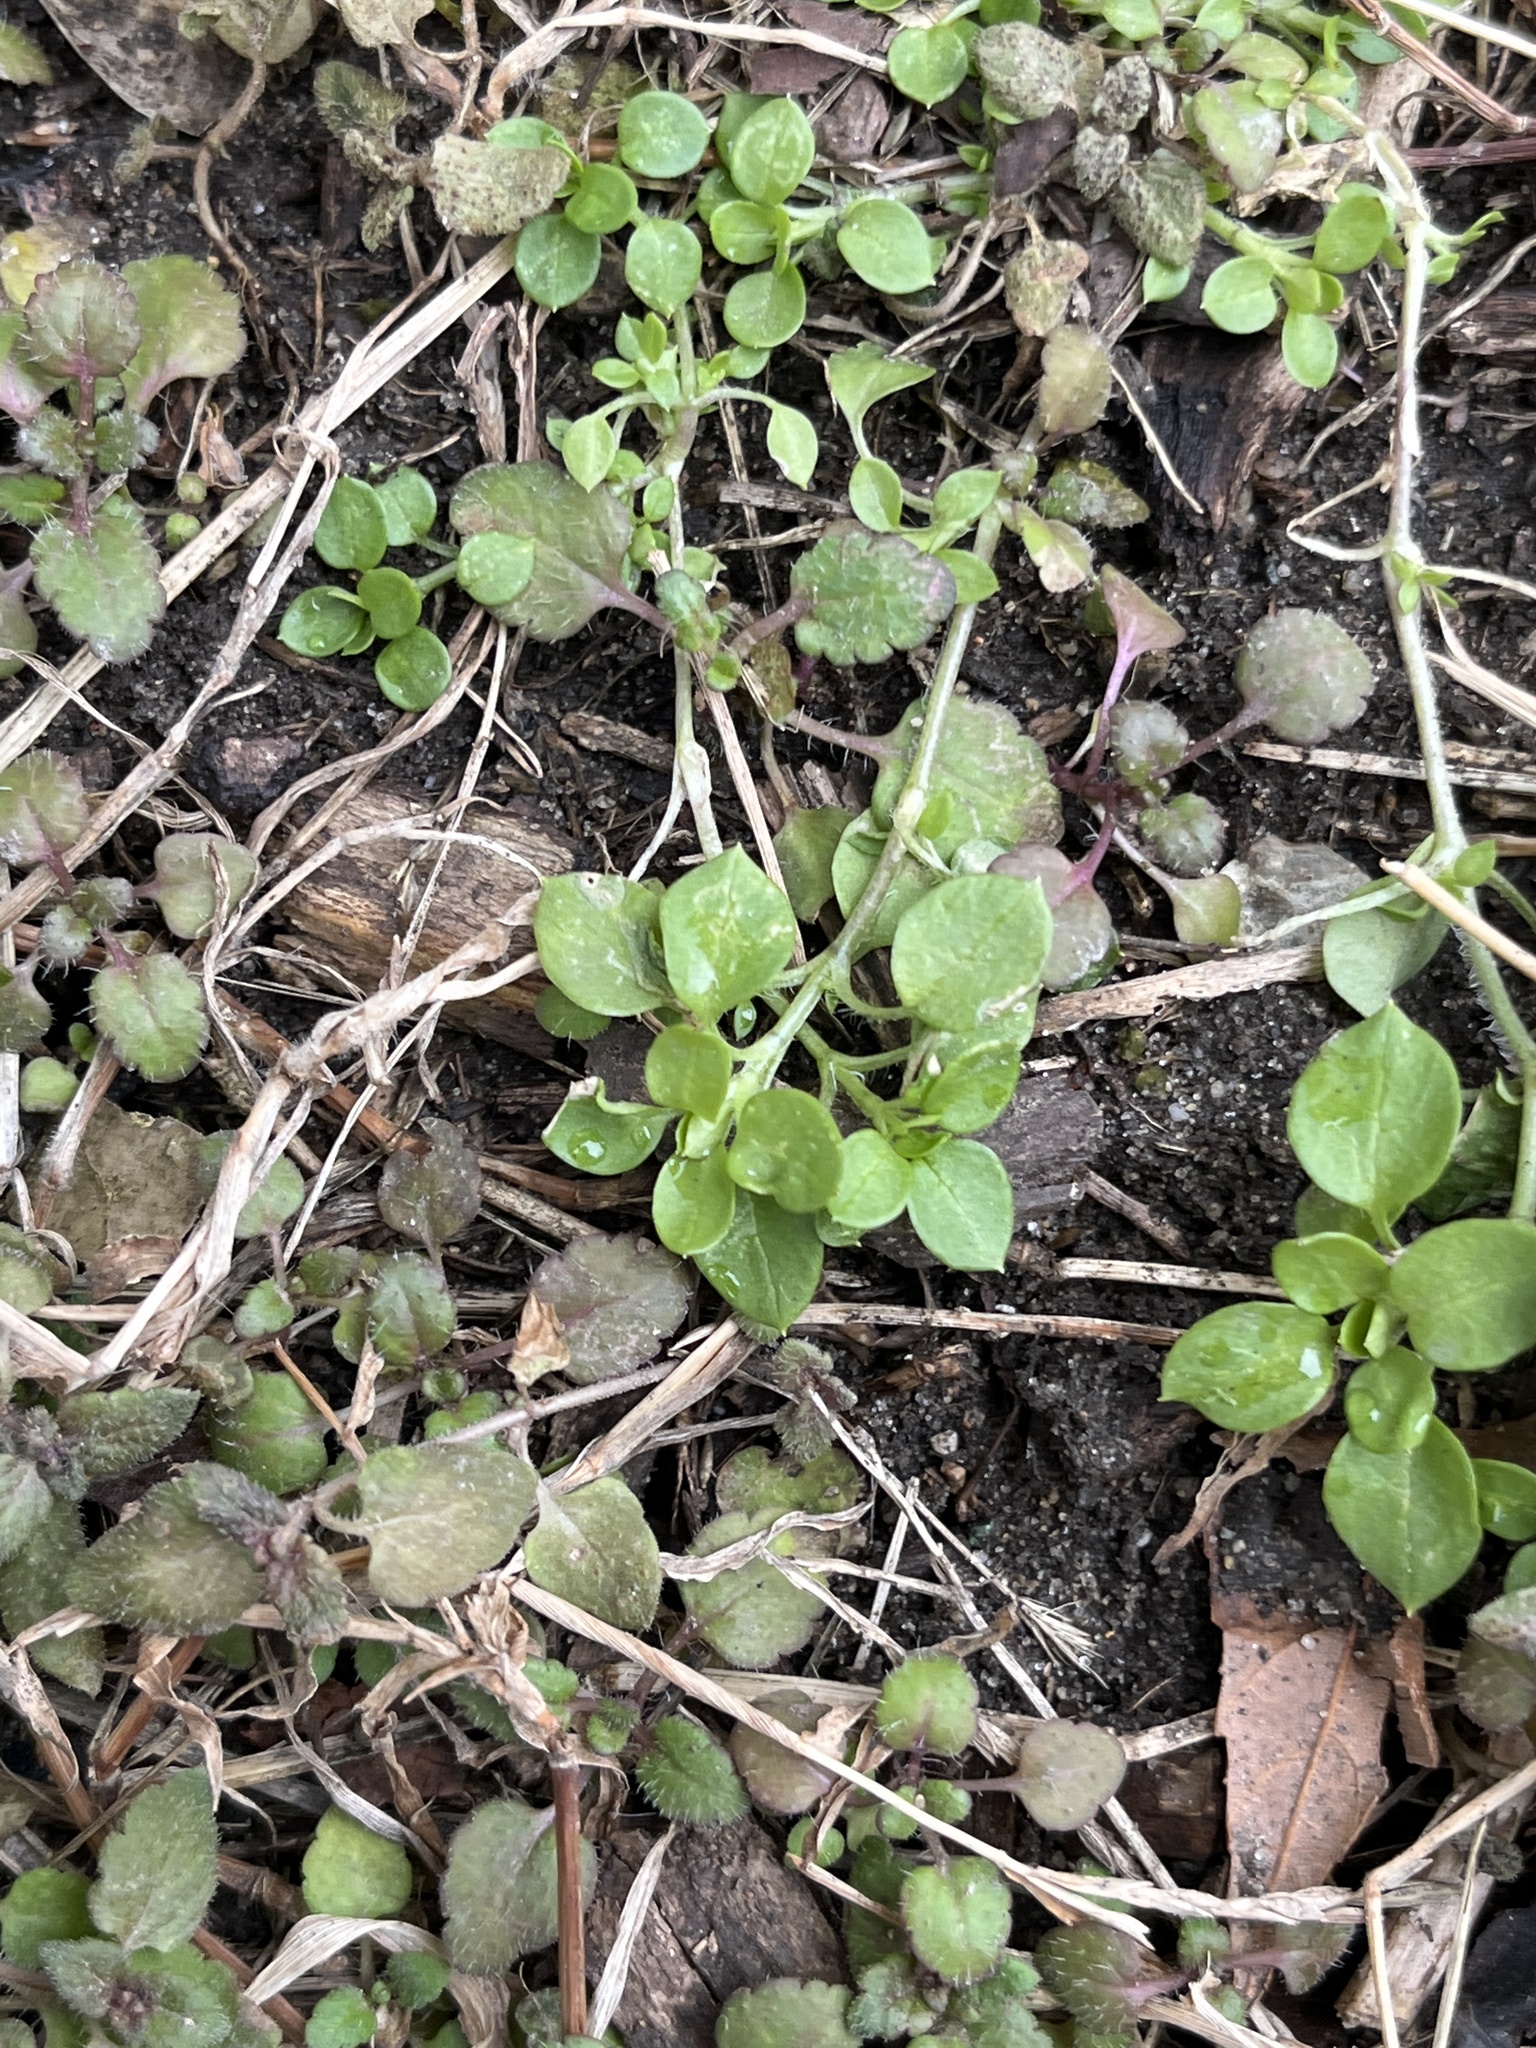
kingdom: Plantae
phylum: Tracheophyta
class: Magnoliopsida
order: Caryophyllales
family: Caryophyllaceae
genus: Stellaria
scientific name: Stellaria media
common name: Common chickweed
